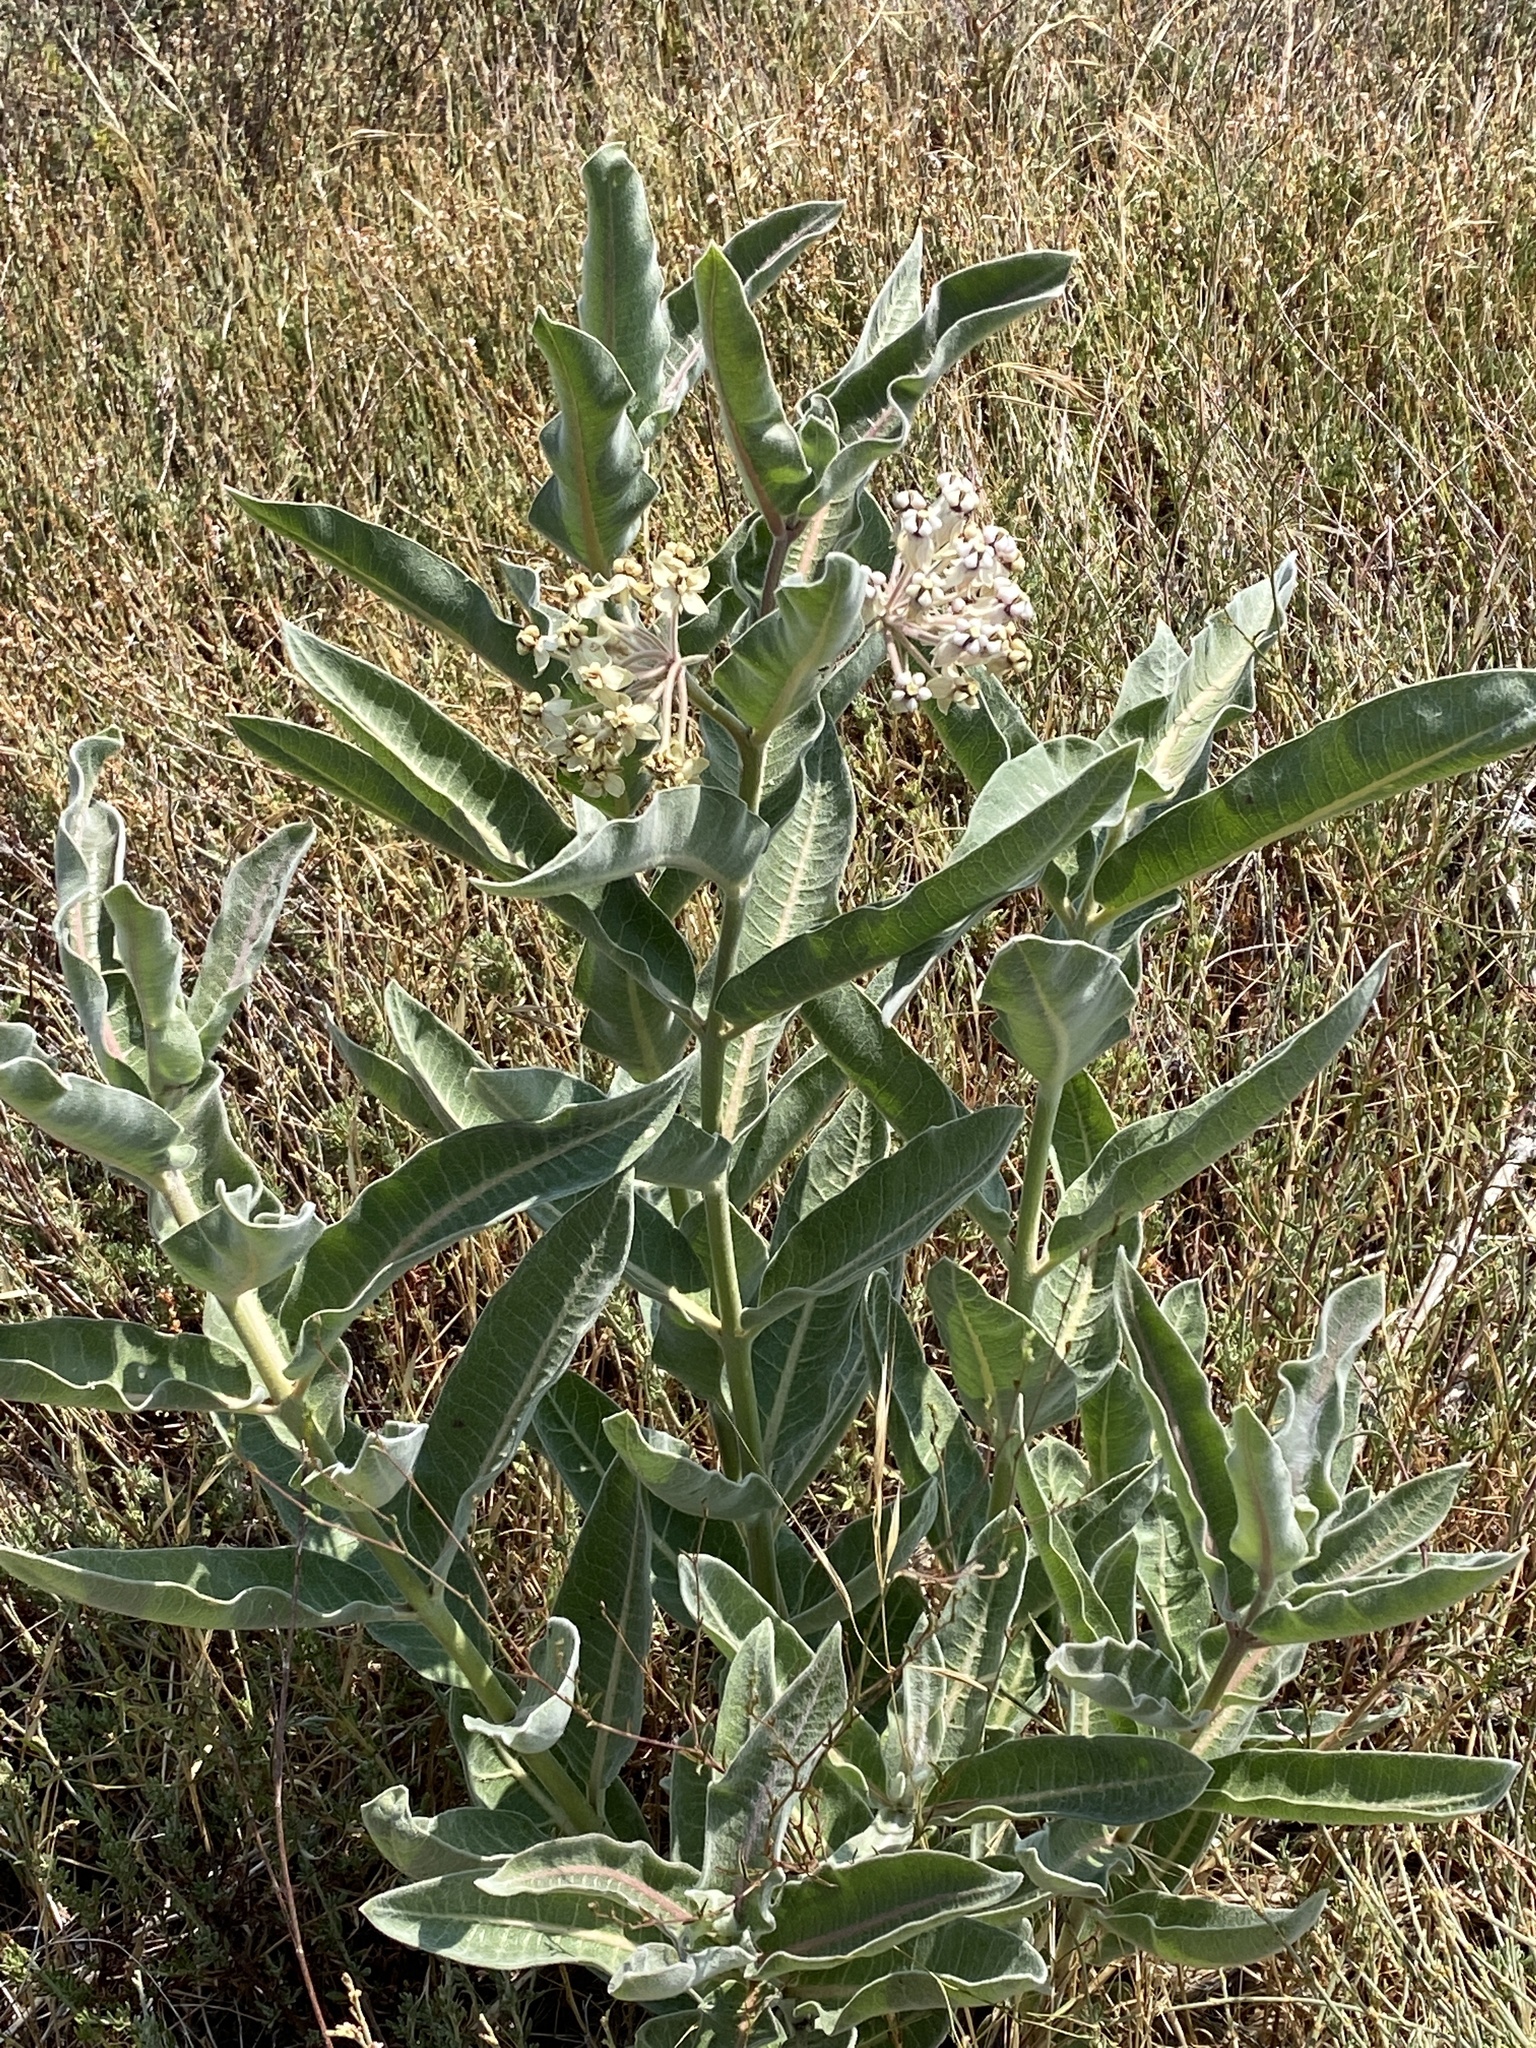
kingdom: Plantae
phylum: Tracheophyta
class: Magnoliopsida
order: Gentianales
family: Apocynaceae
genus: Asclepias
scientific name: Asclepias eriocarpa
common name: Indian milkweed
